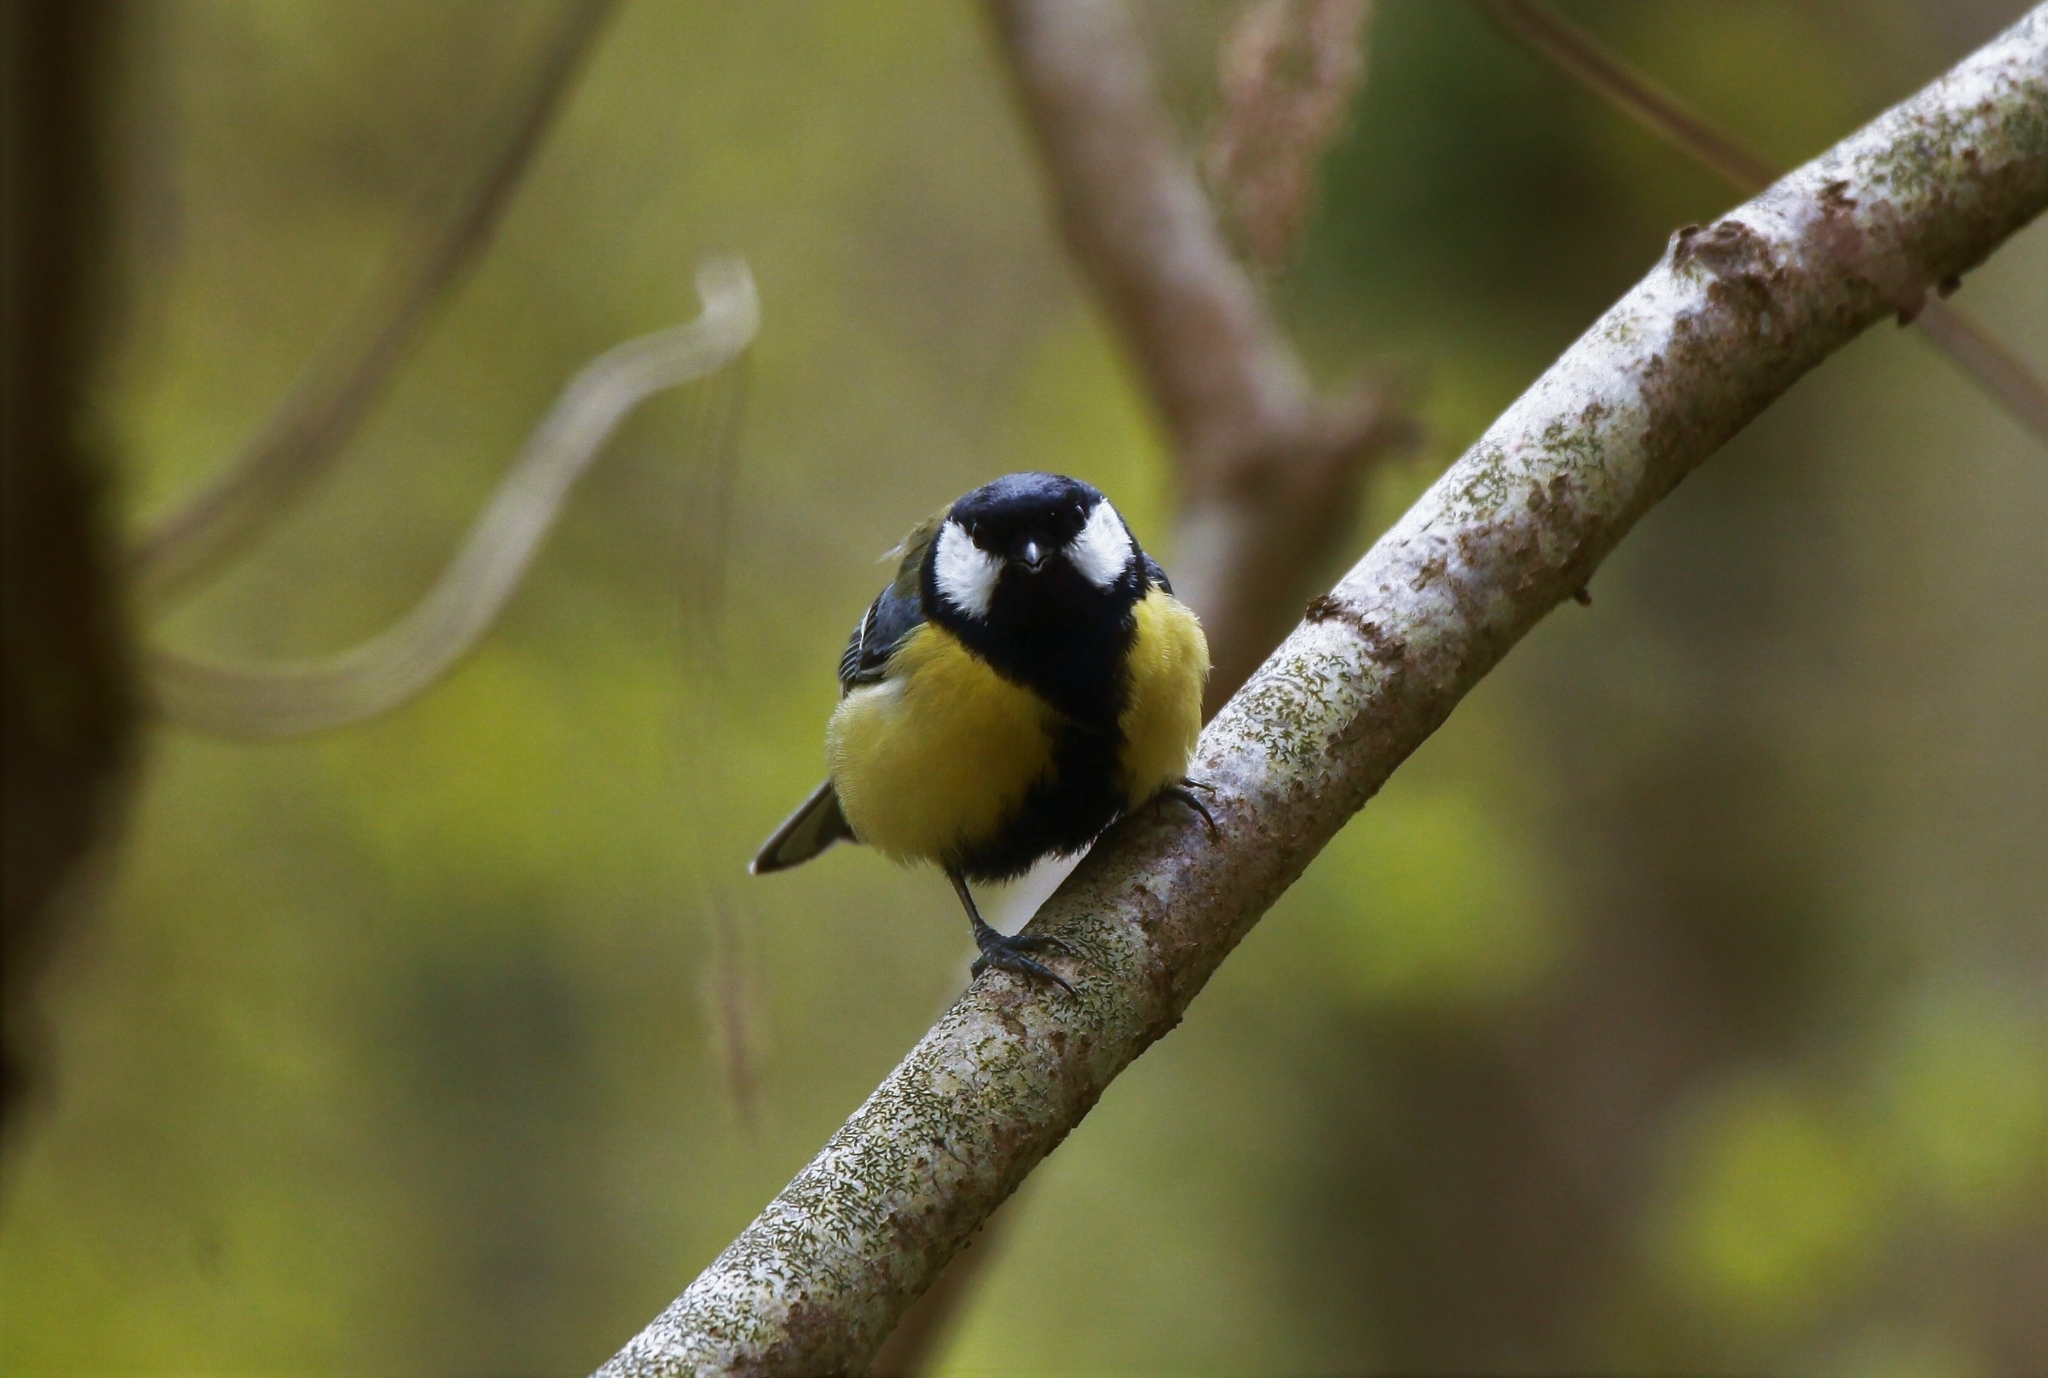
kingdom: Animalia
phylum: Chordata
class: Aves
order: Passeriformes
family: Paridae
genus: Parus
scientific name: Parus major
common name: Great tit
